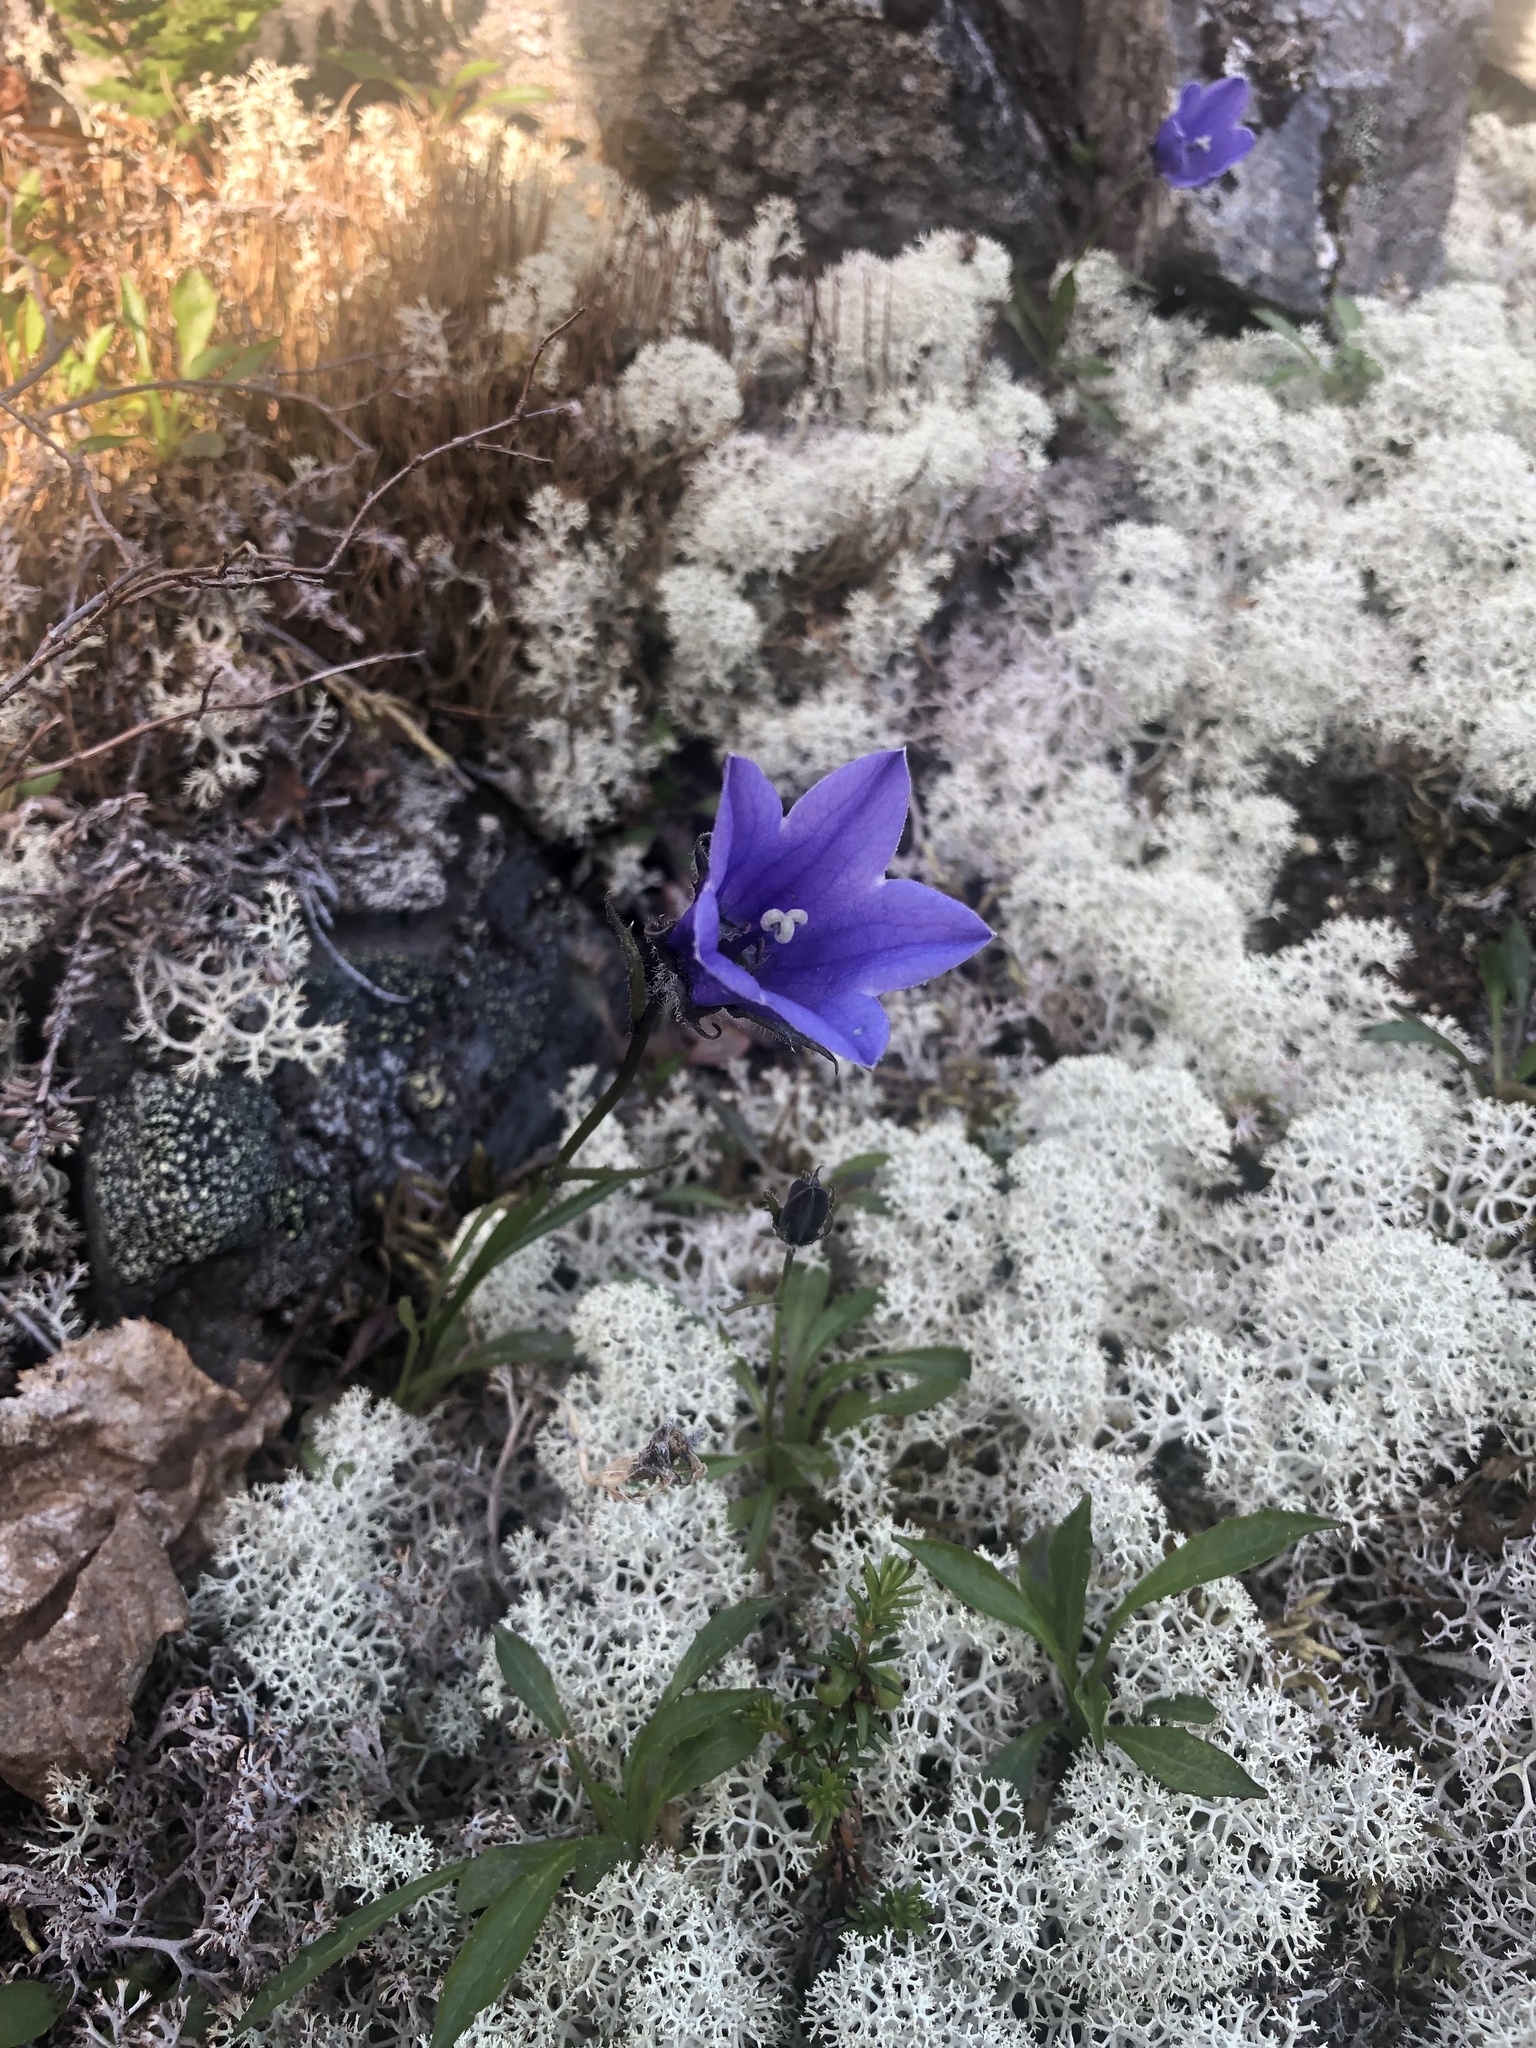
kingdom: Plantae
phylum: Tracheophyta
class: Magnoliopsida
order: Asterales
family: Campanulaceae
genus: Campanula
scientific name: Campanula lasiocarpa
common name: Mountain harebell
